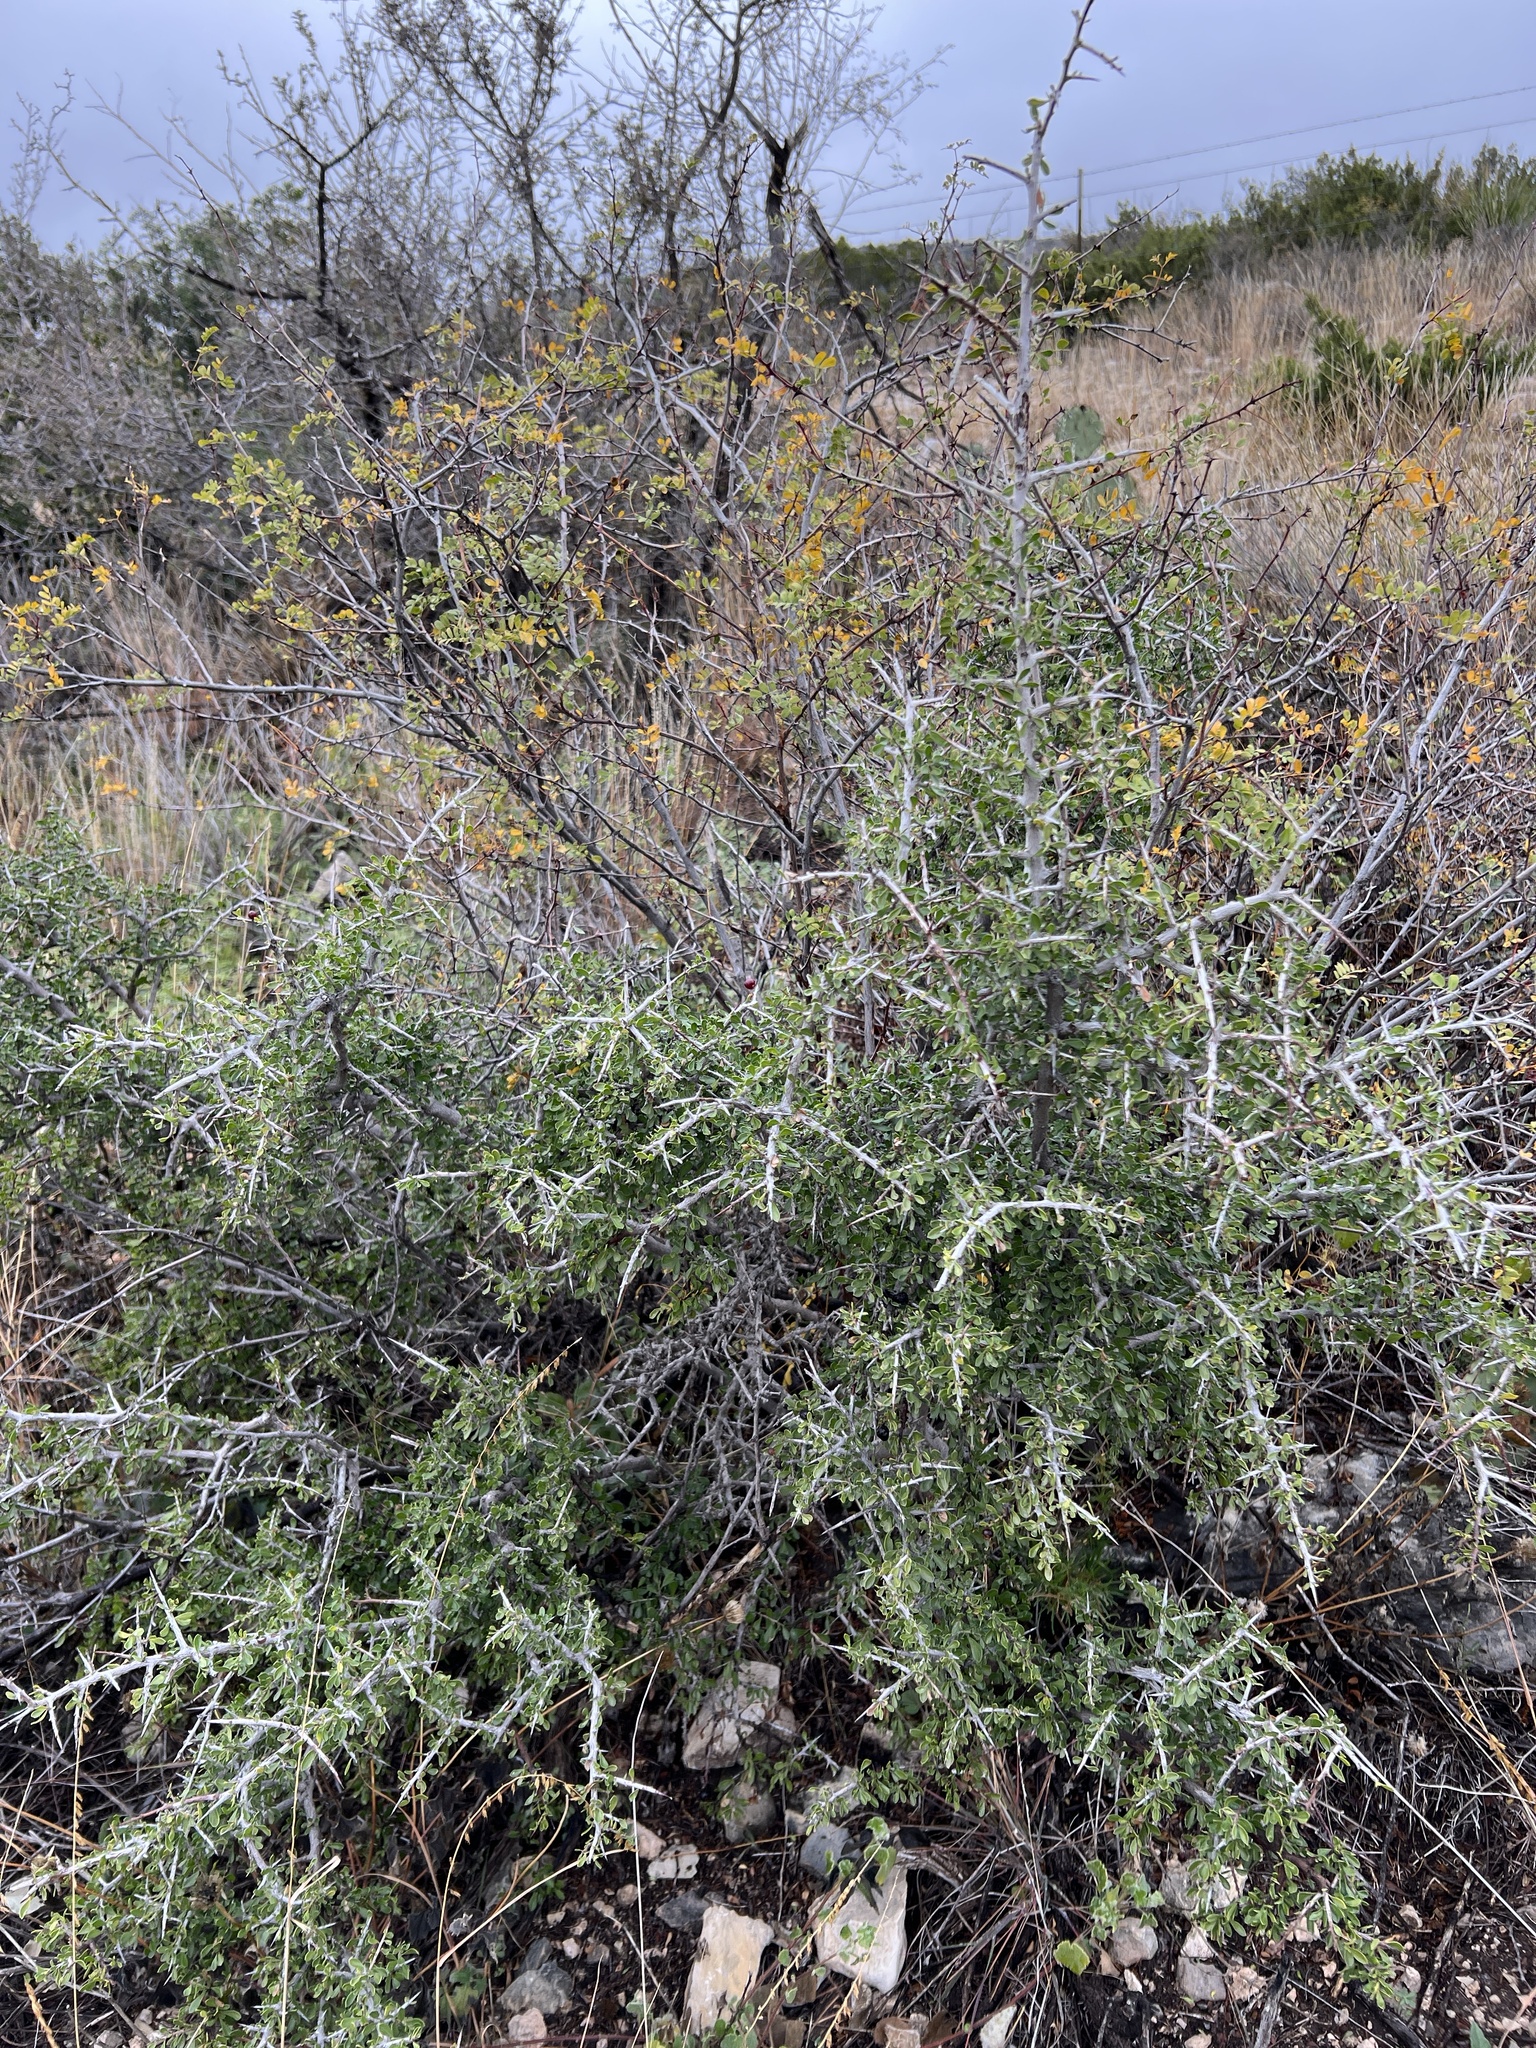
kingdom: Plantae
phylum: Tracheophyta
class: Magnoliopsida
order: Rosales
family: Rhamnaceae
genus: Condalia
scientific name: Condalia viridis
